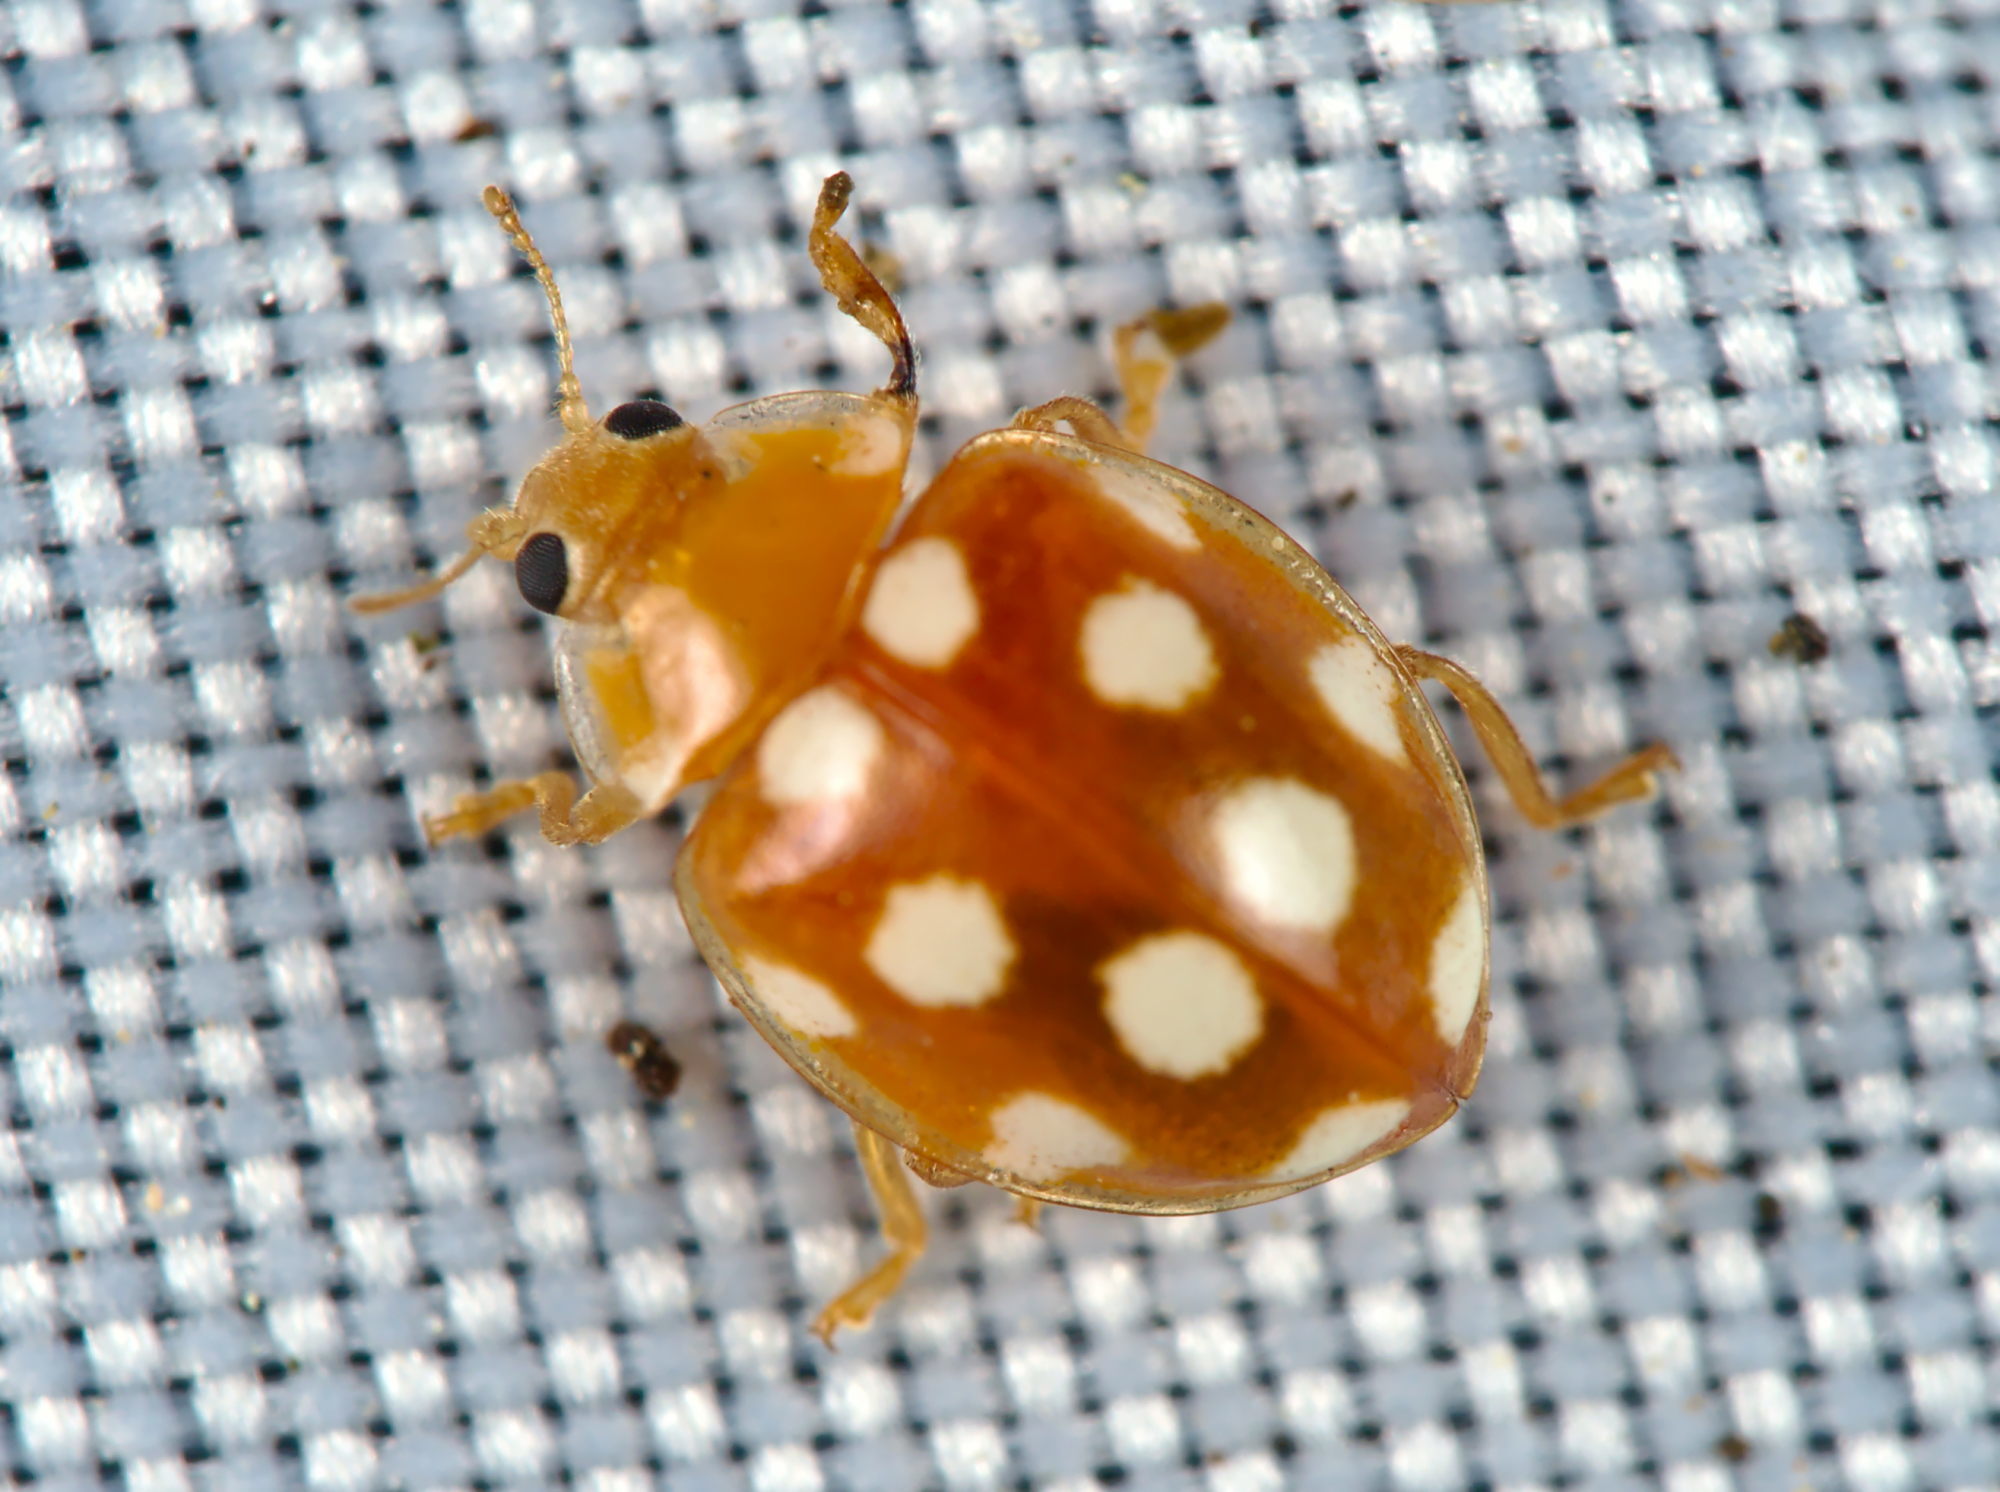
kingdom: Animalia
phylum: Arthropoda
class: Insecta
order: Coleoptera
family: Coccinellidae
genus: Vibidia
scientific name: Vibidia duodecimguttata
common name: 12-spot ladybird
